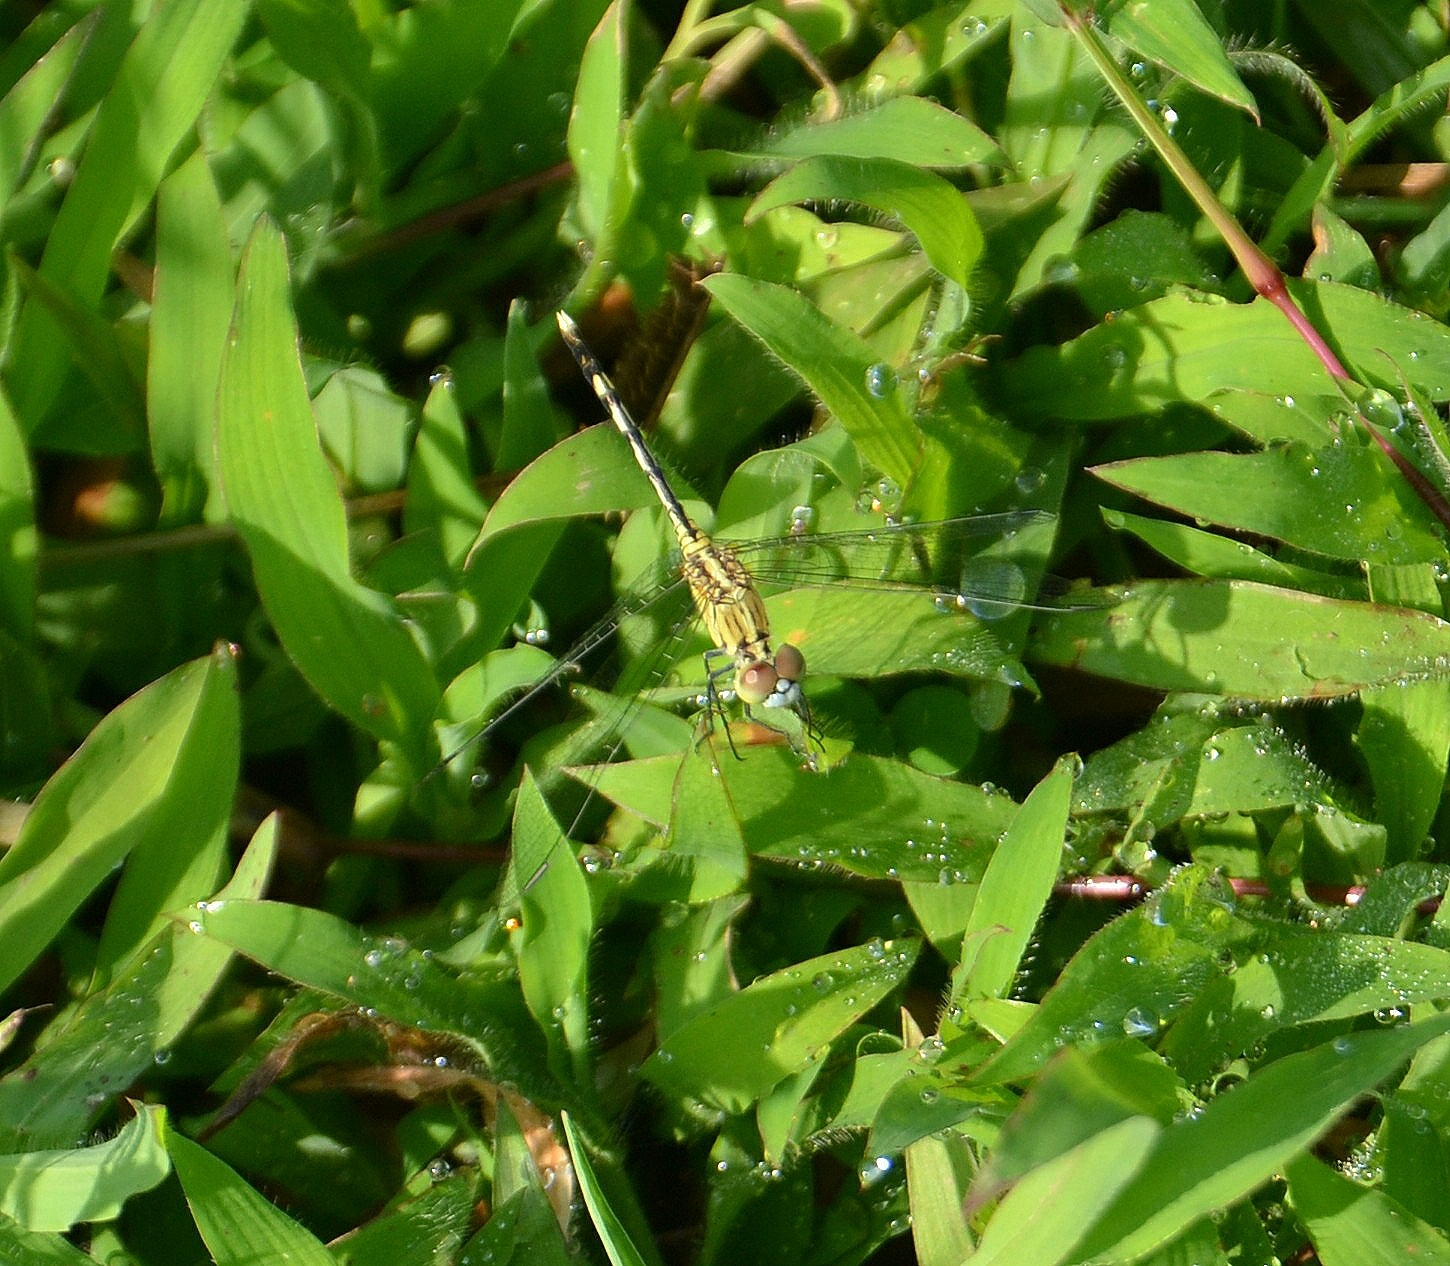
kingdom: Animalia
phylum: Arthropoda
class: Insecta
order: Odonata
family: Libellulidae
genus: Diplacodes
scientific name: Diplacodes trivialis
